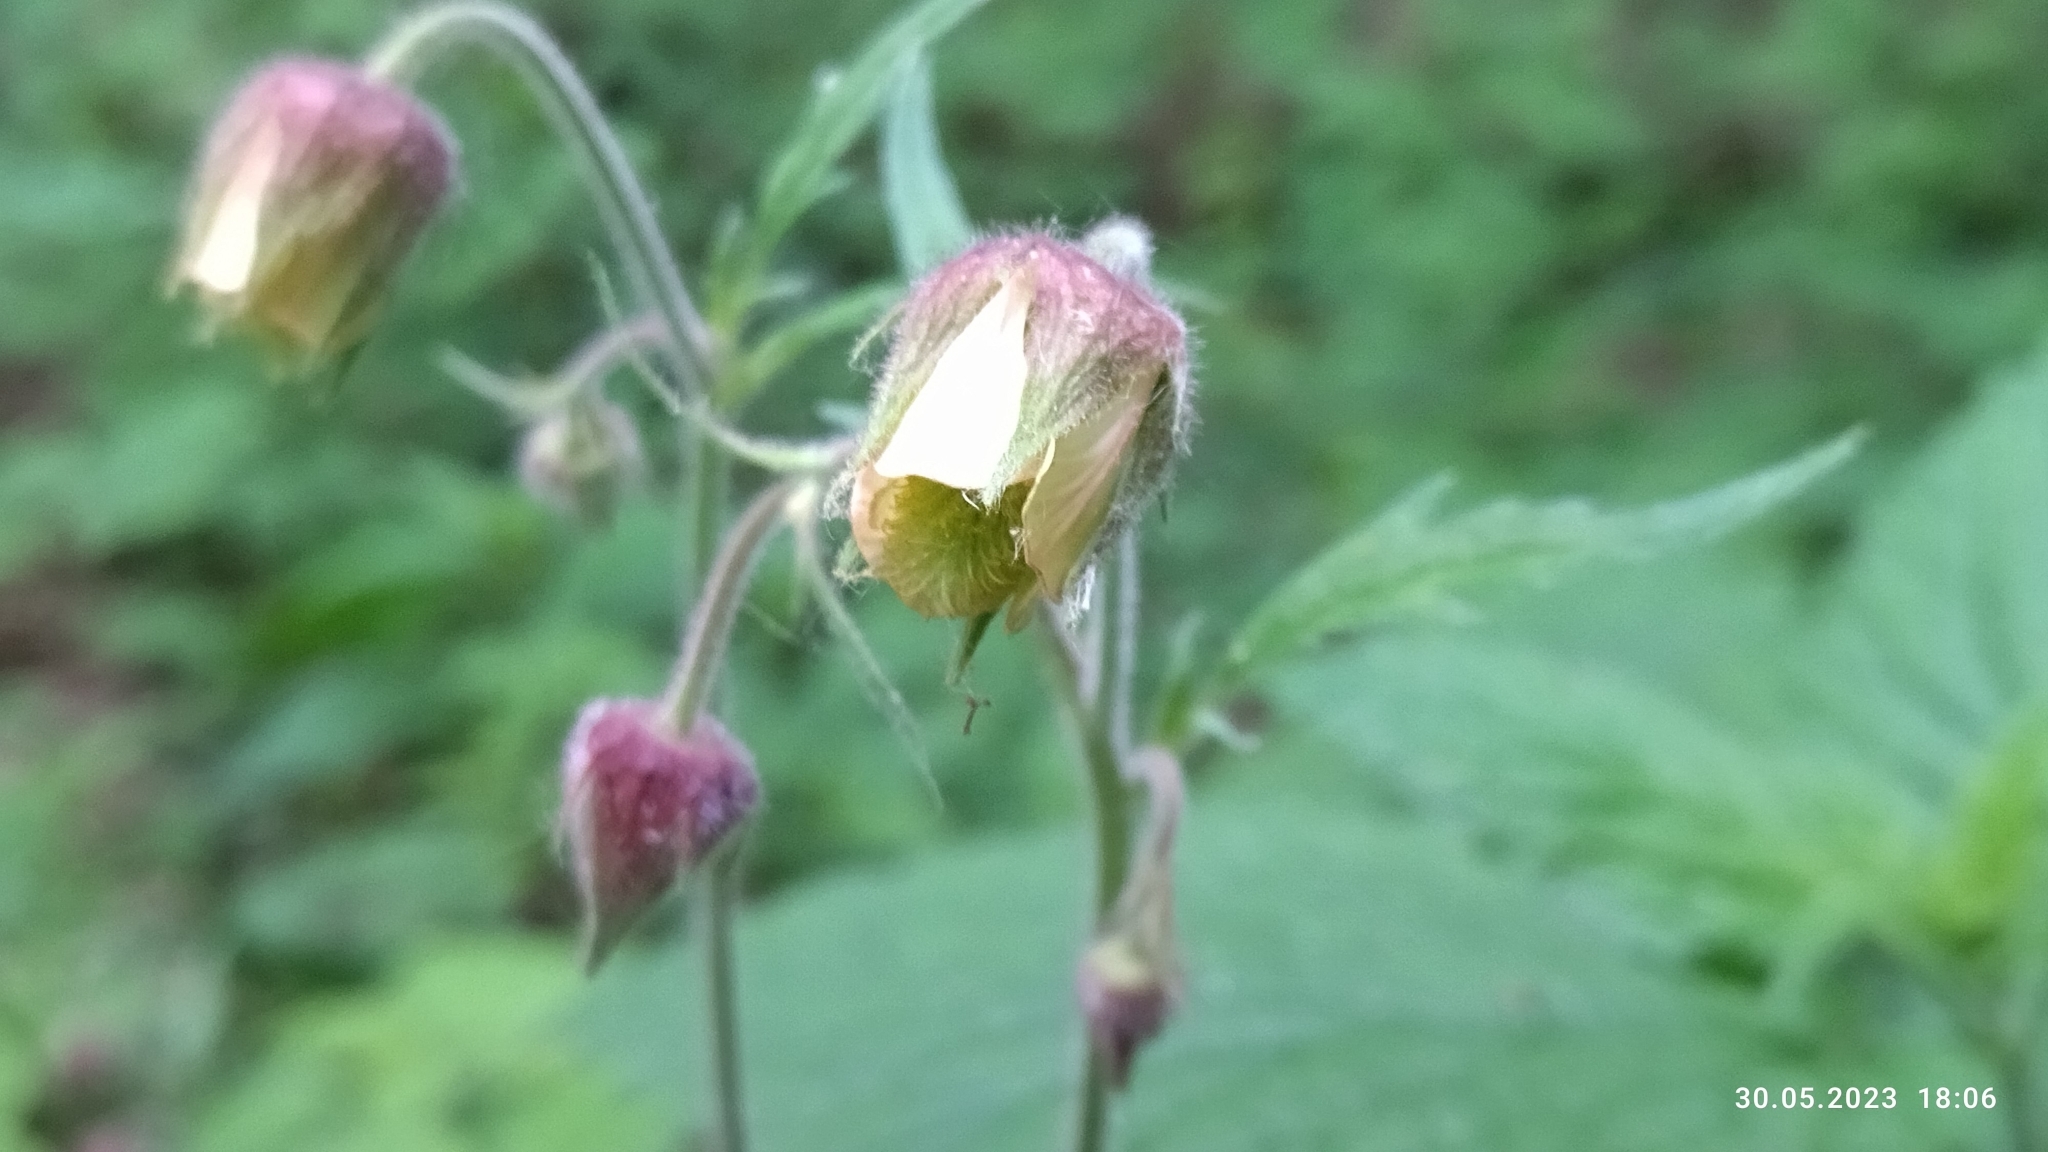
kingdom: Plantae
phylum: Tracheophyta
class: Magnoliopsida
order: Rosales
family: Rosaceae
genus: Geum
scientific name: Geum rivale
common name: Water avens
